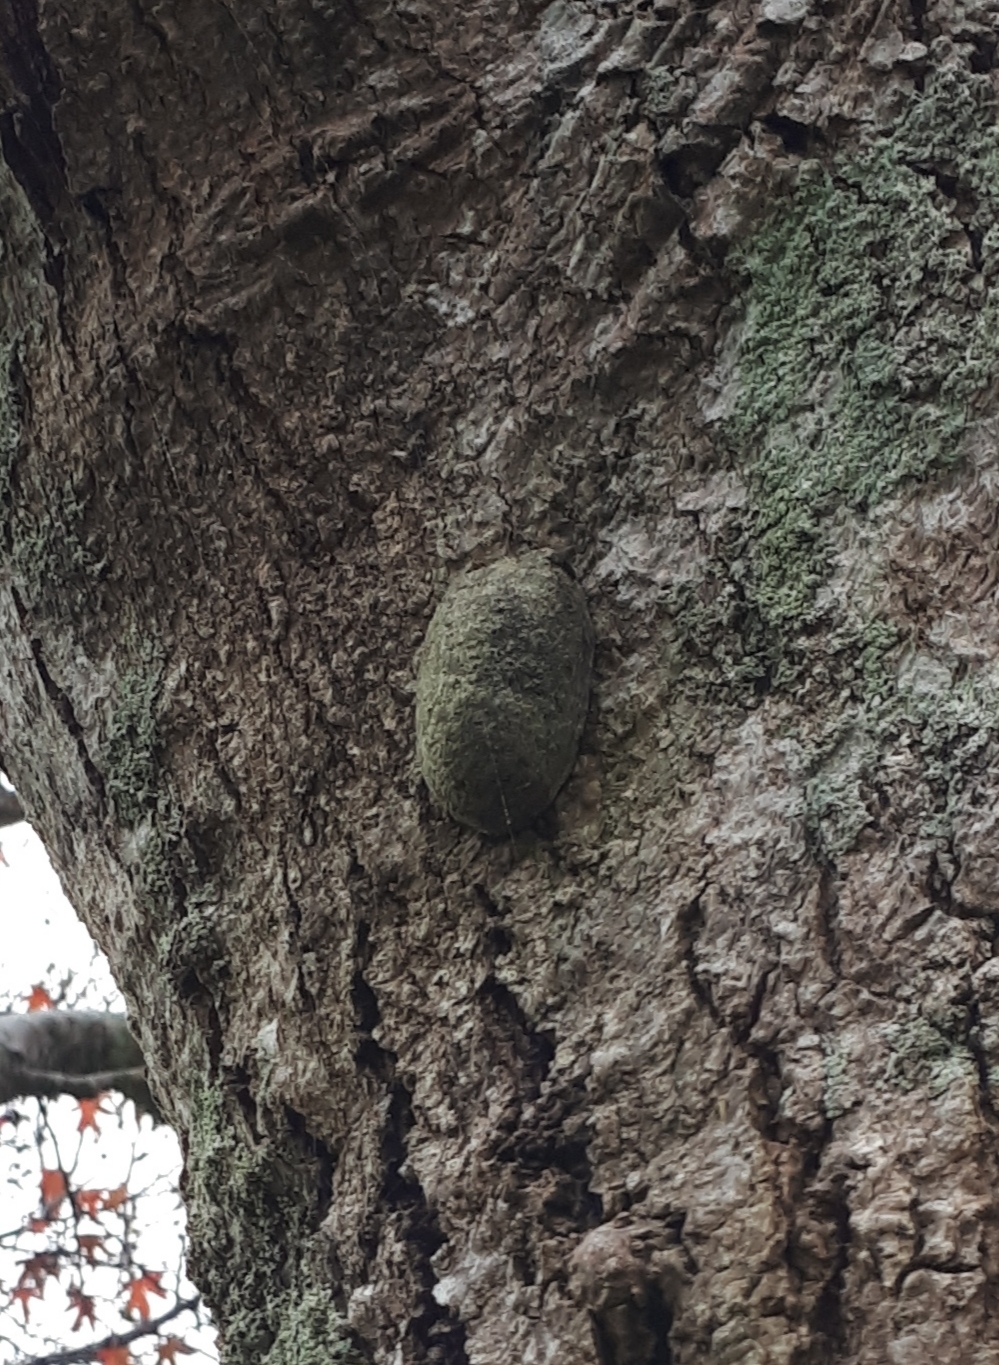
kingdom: Animalia
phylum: Arthropoda
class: Insecta
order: Lepidoptera
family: Saturniidae
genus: Opodiphthera
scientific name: Opodiphthera
